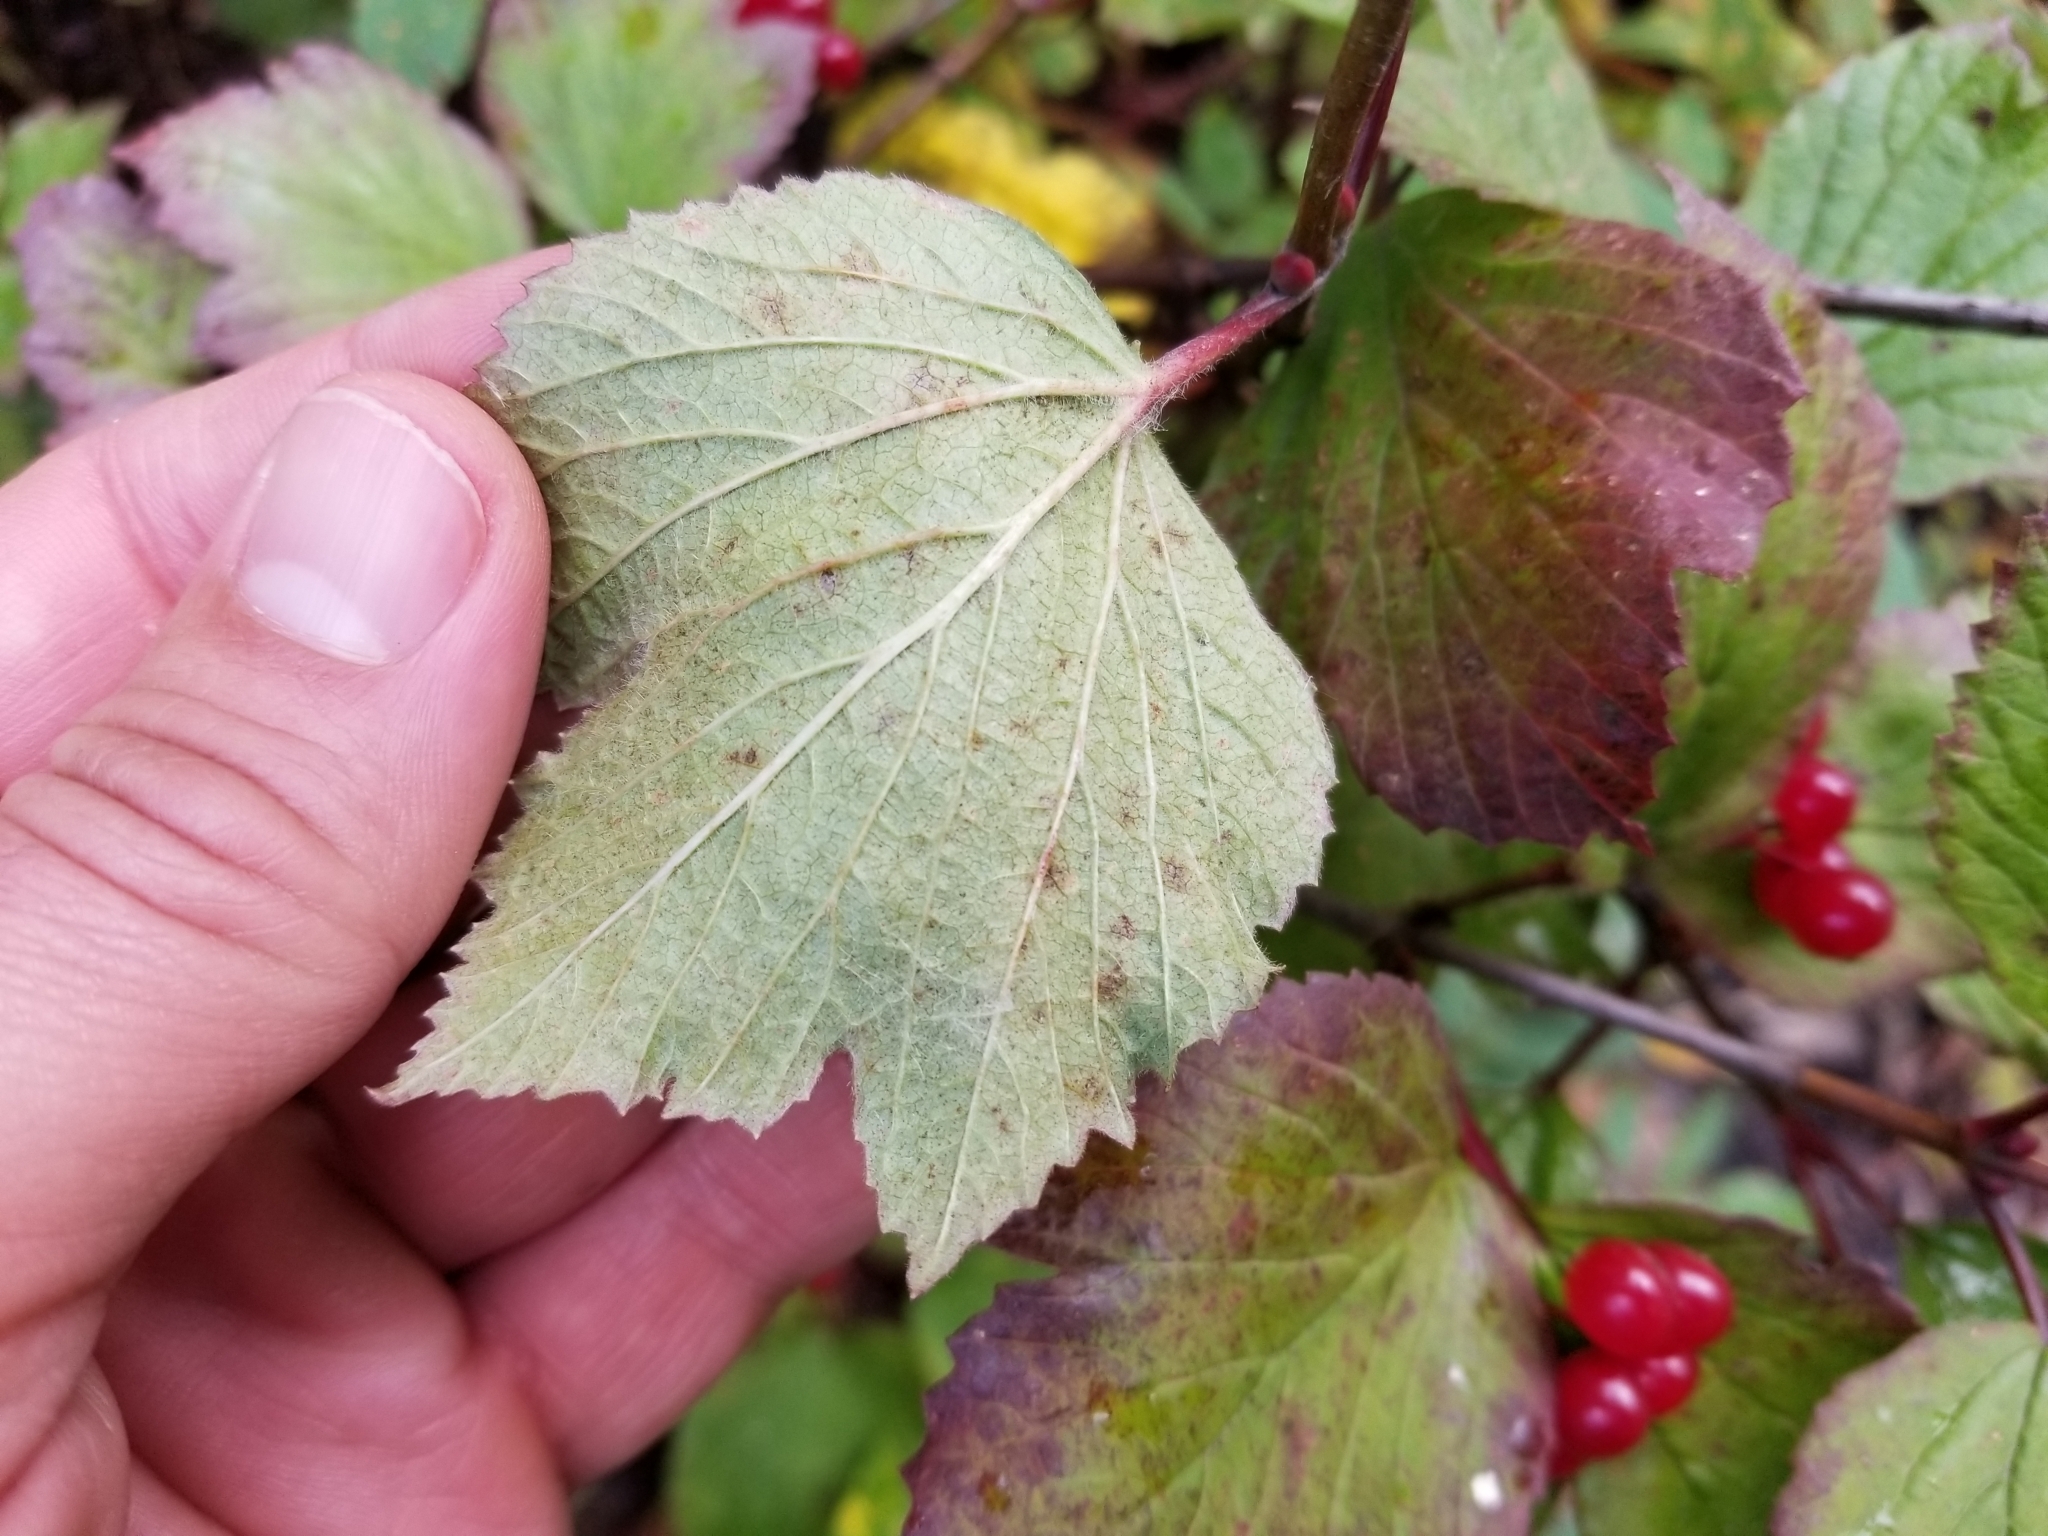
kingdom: Plantae
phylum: Tracheophyta
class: Magnoliopsida
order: Dipsacales
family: Viburnaceae
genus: Viburnum
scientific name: Viburnum edule
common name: Mooseberry
